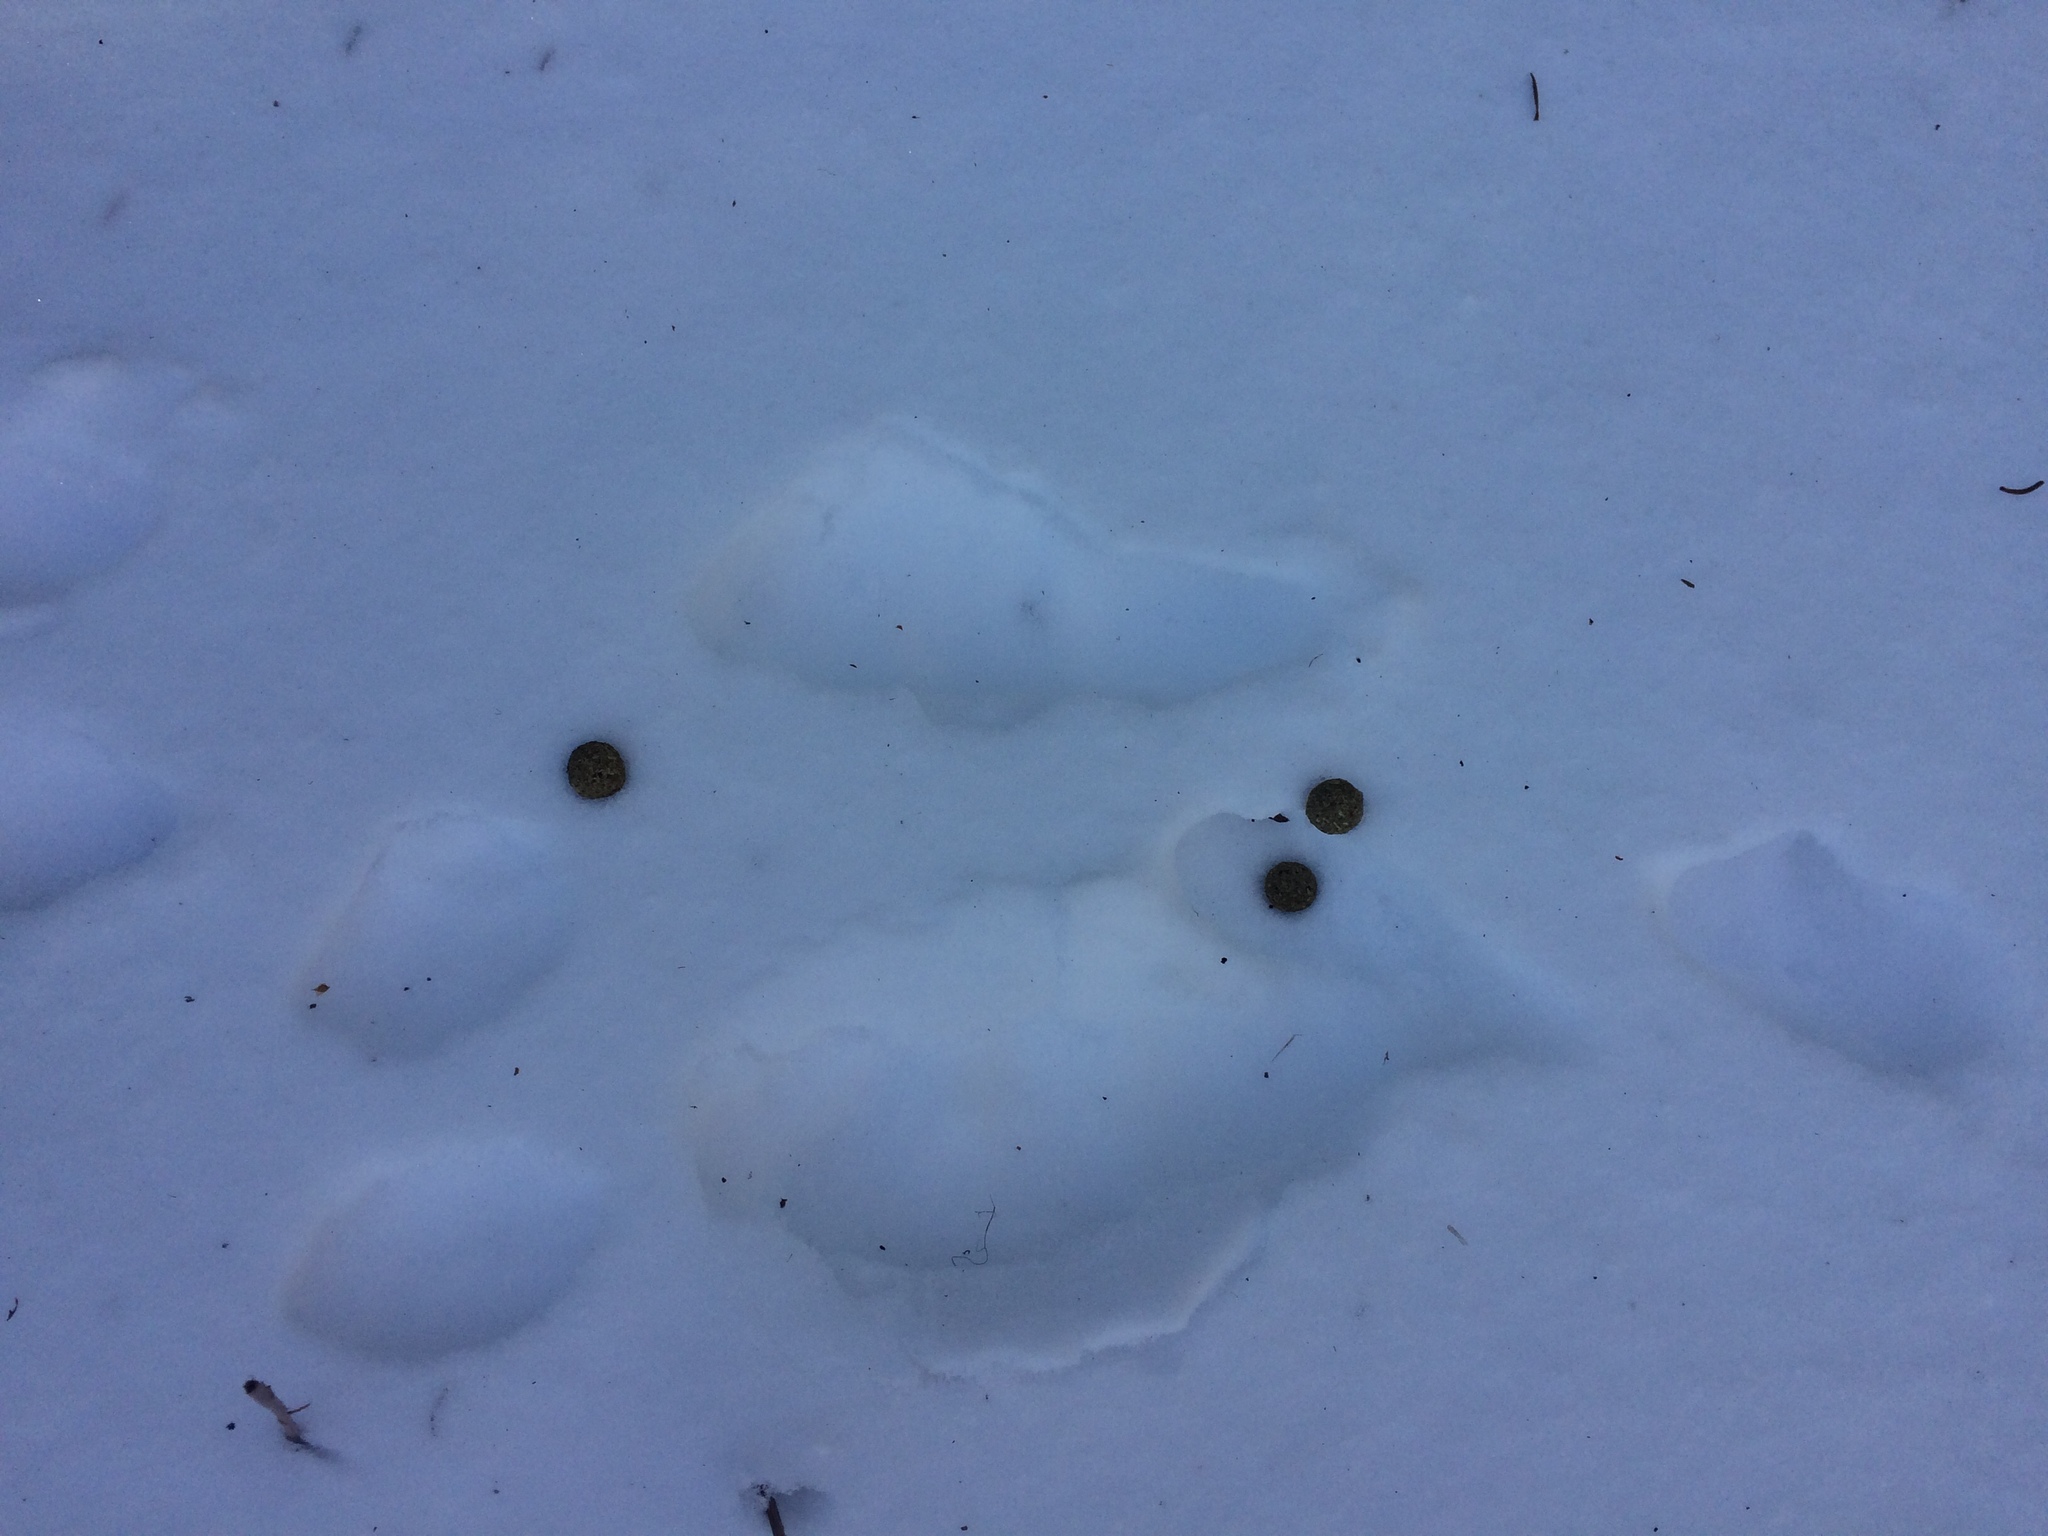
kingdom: Animalia
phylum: Chordata
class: Mammalia
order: Lagomorpha
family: Leporidae
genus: Lepus
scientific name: Lepus americanus
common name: Snowshoe hare
